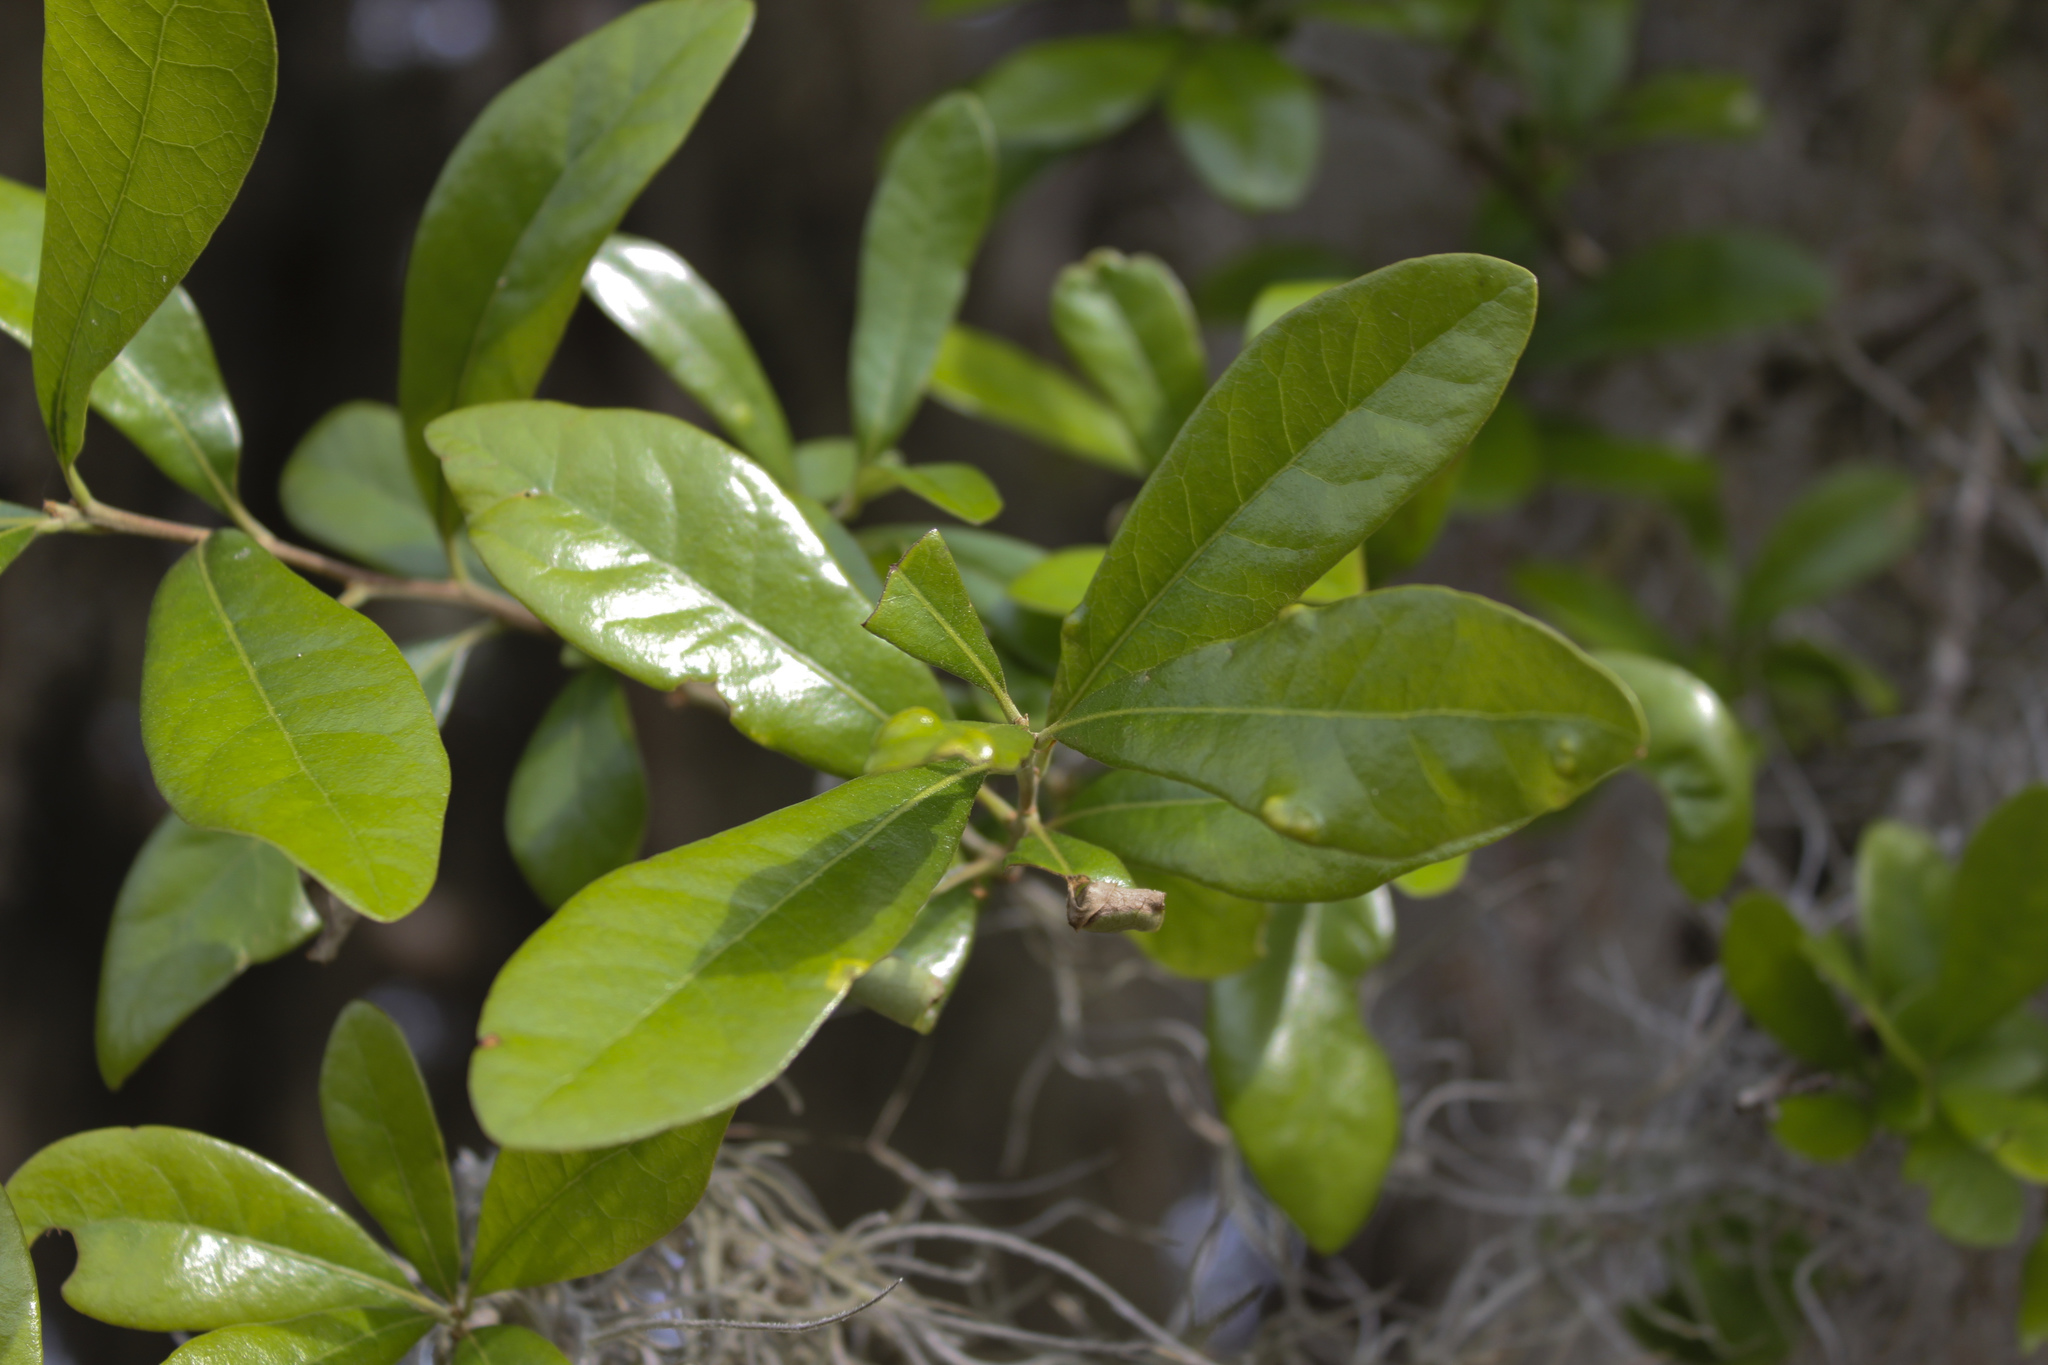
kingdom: Plantae
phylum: Tracheophyta
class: Magnoliopsida
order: Fagales
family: Fagaceae
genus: Quercus
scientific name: Quercus virginiana
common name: Southern live oak
